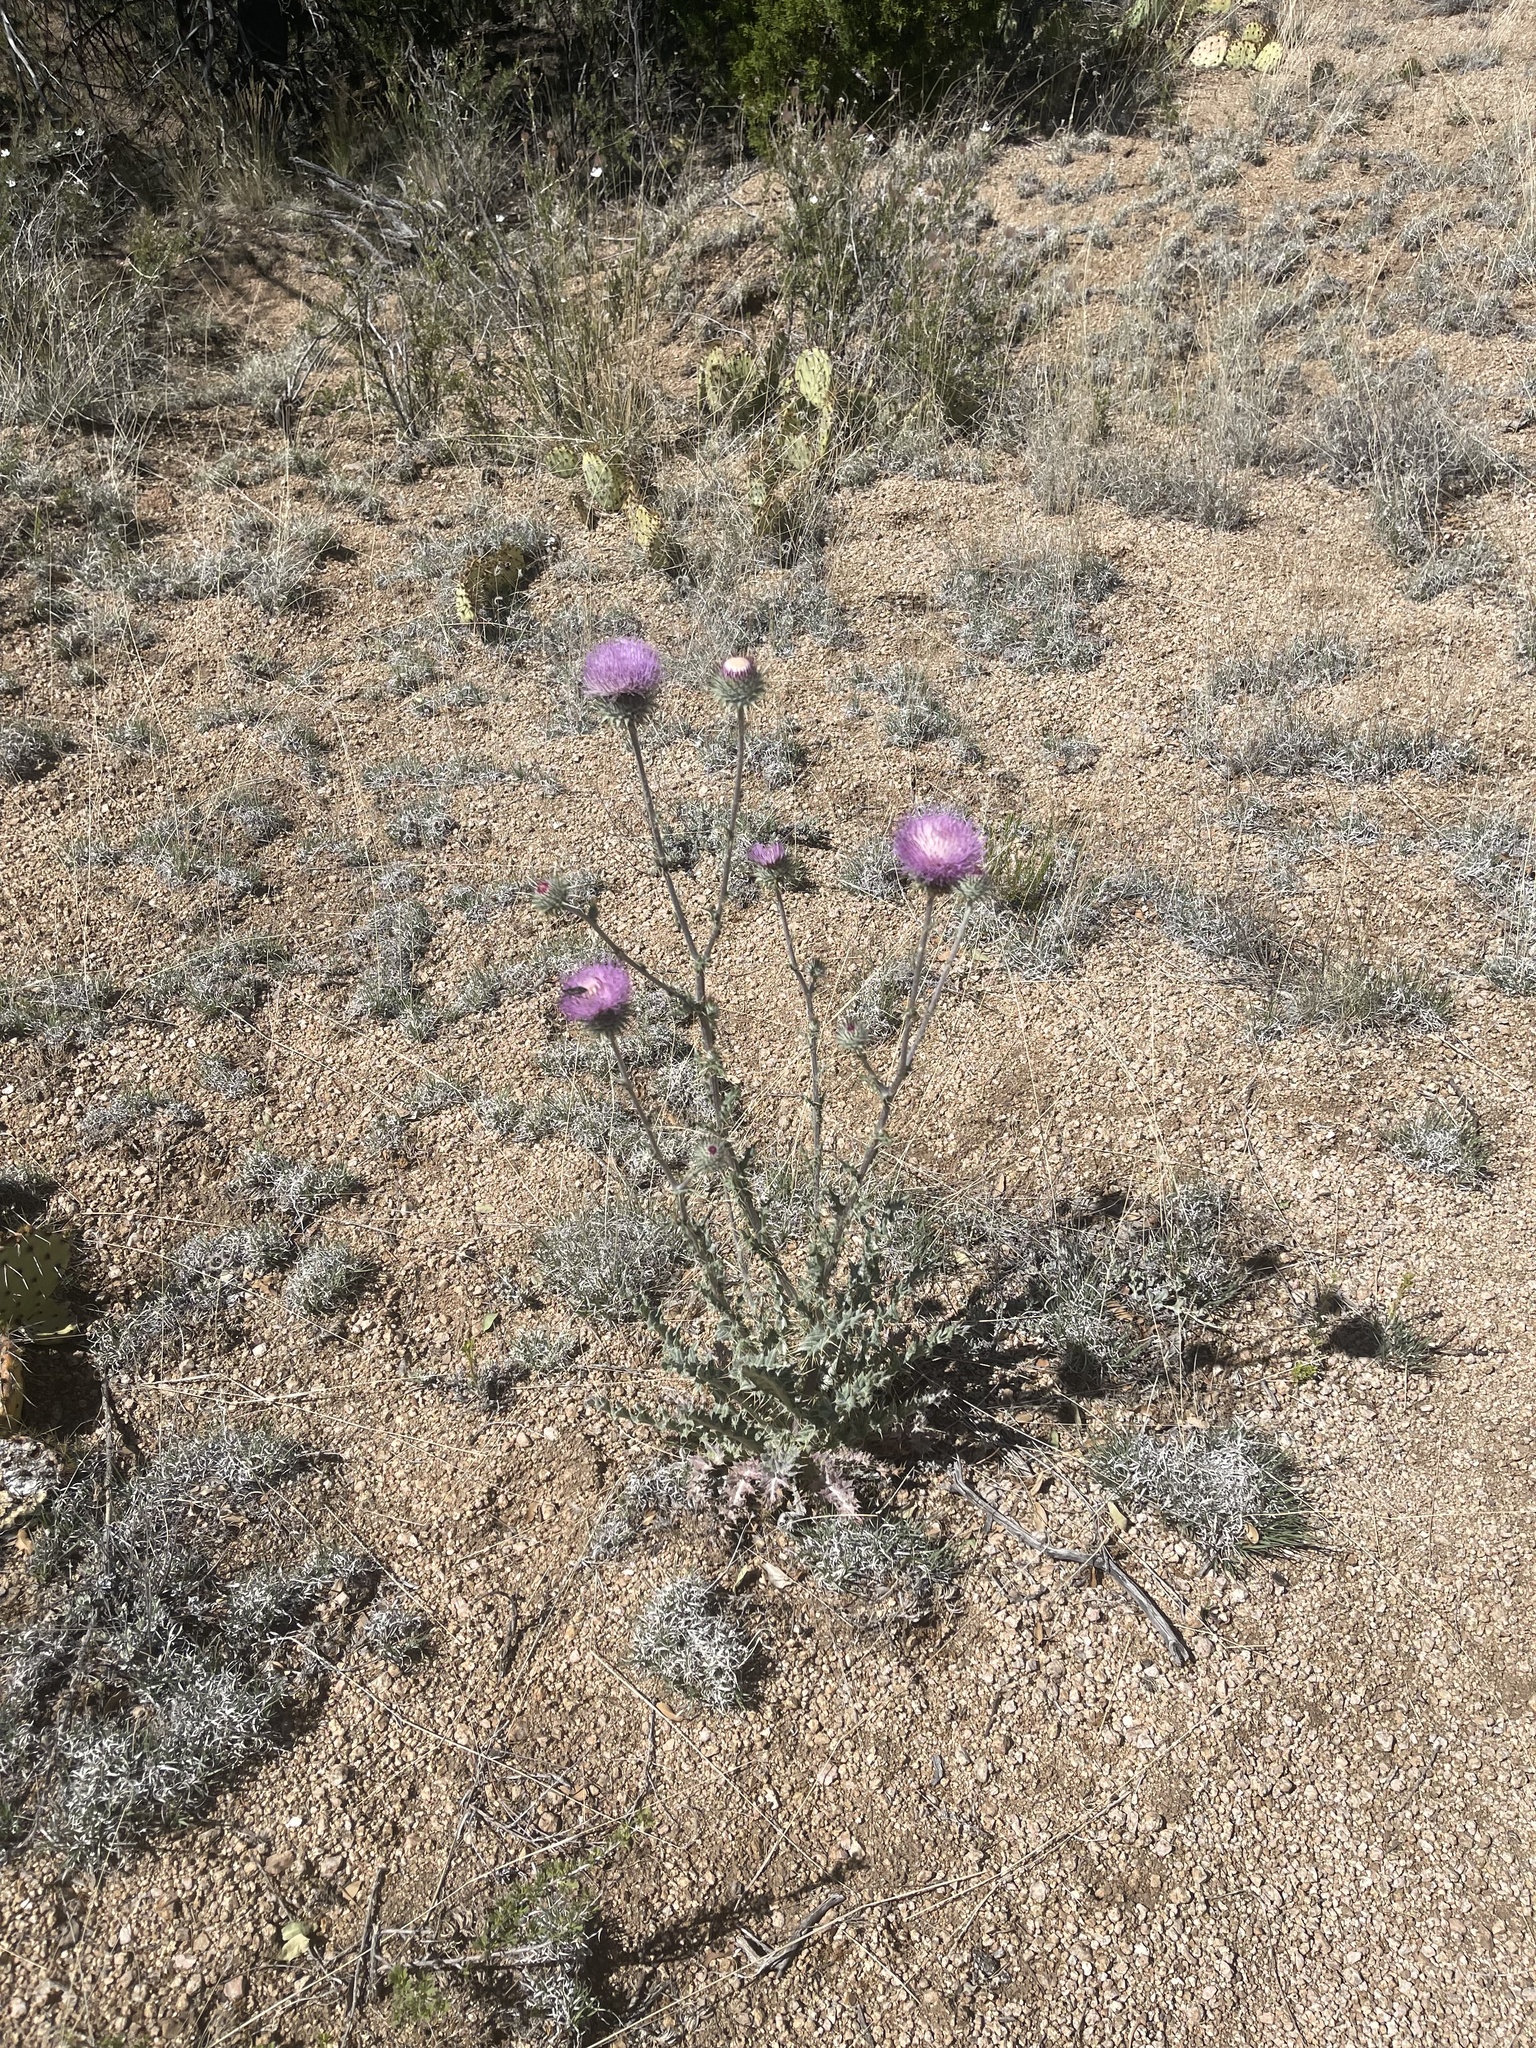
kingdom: Plantae
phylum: Tracheophyta
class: Magnoliopsida
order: Asterales
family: Asteraceae
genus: Cirsium
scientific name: Cirsium neomexicanum
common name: New mexico thistle
